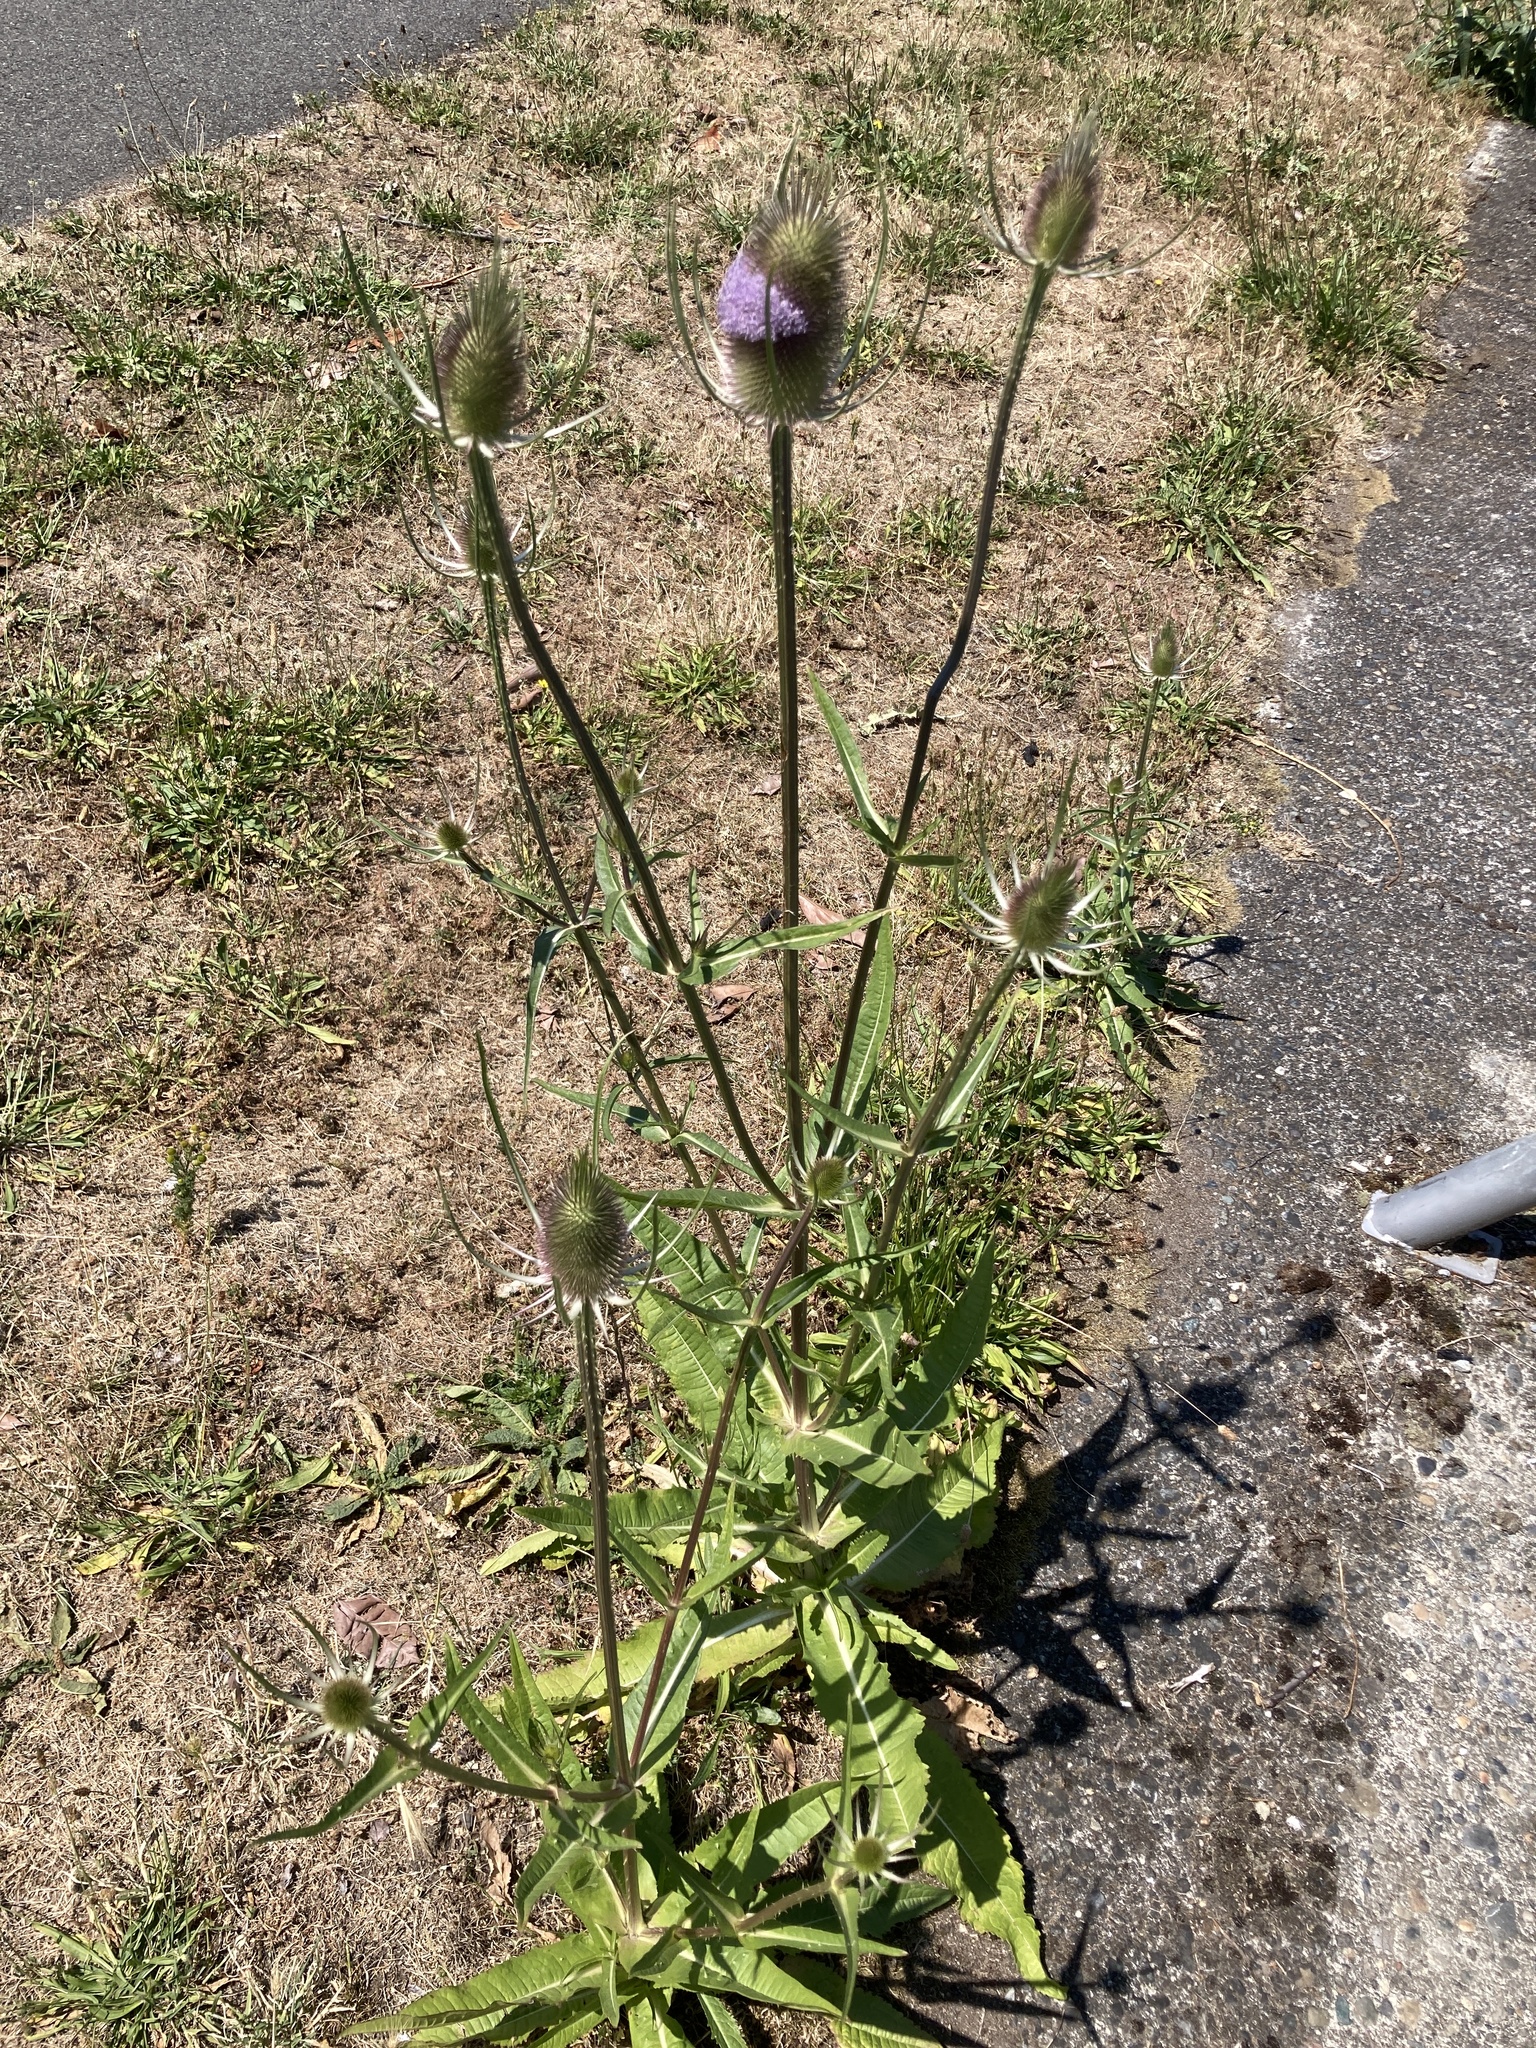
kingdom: Plantae
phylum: Tracheophyta
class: Magnoliopsida
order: Dipsacales
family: Caprifoliaceae
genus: Dipsacus
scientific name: Dipsacus fullonum
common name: Teasel
